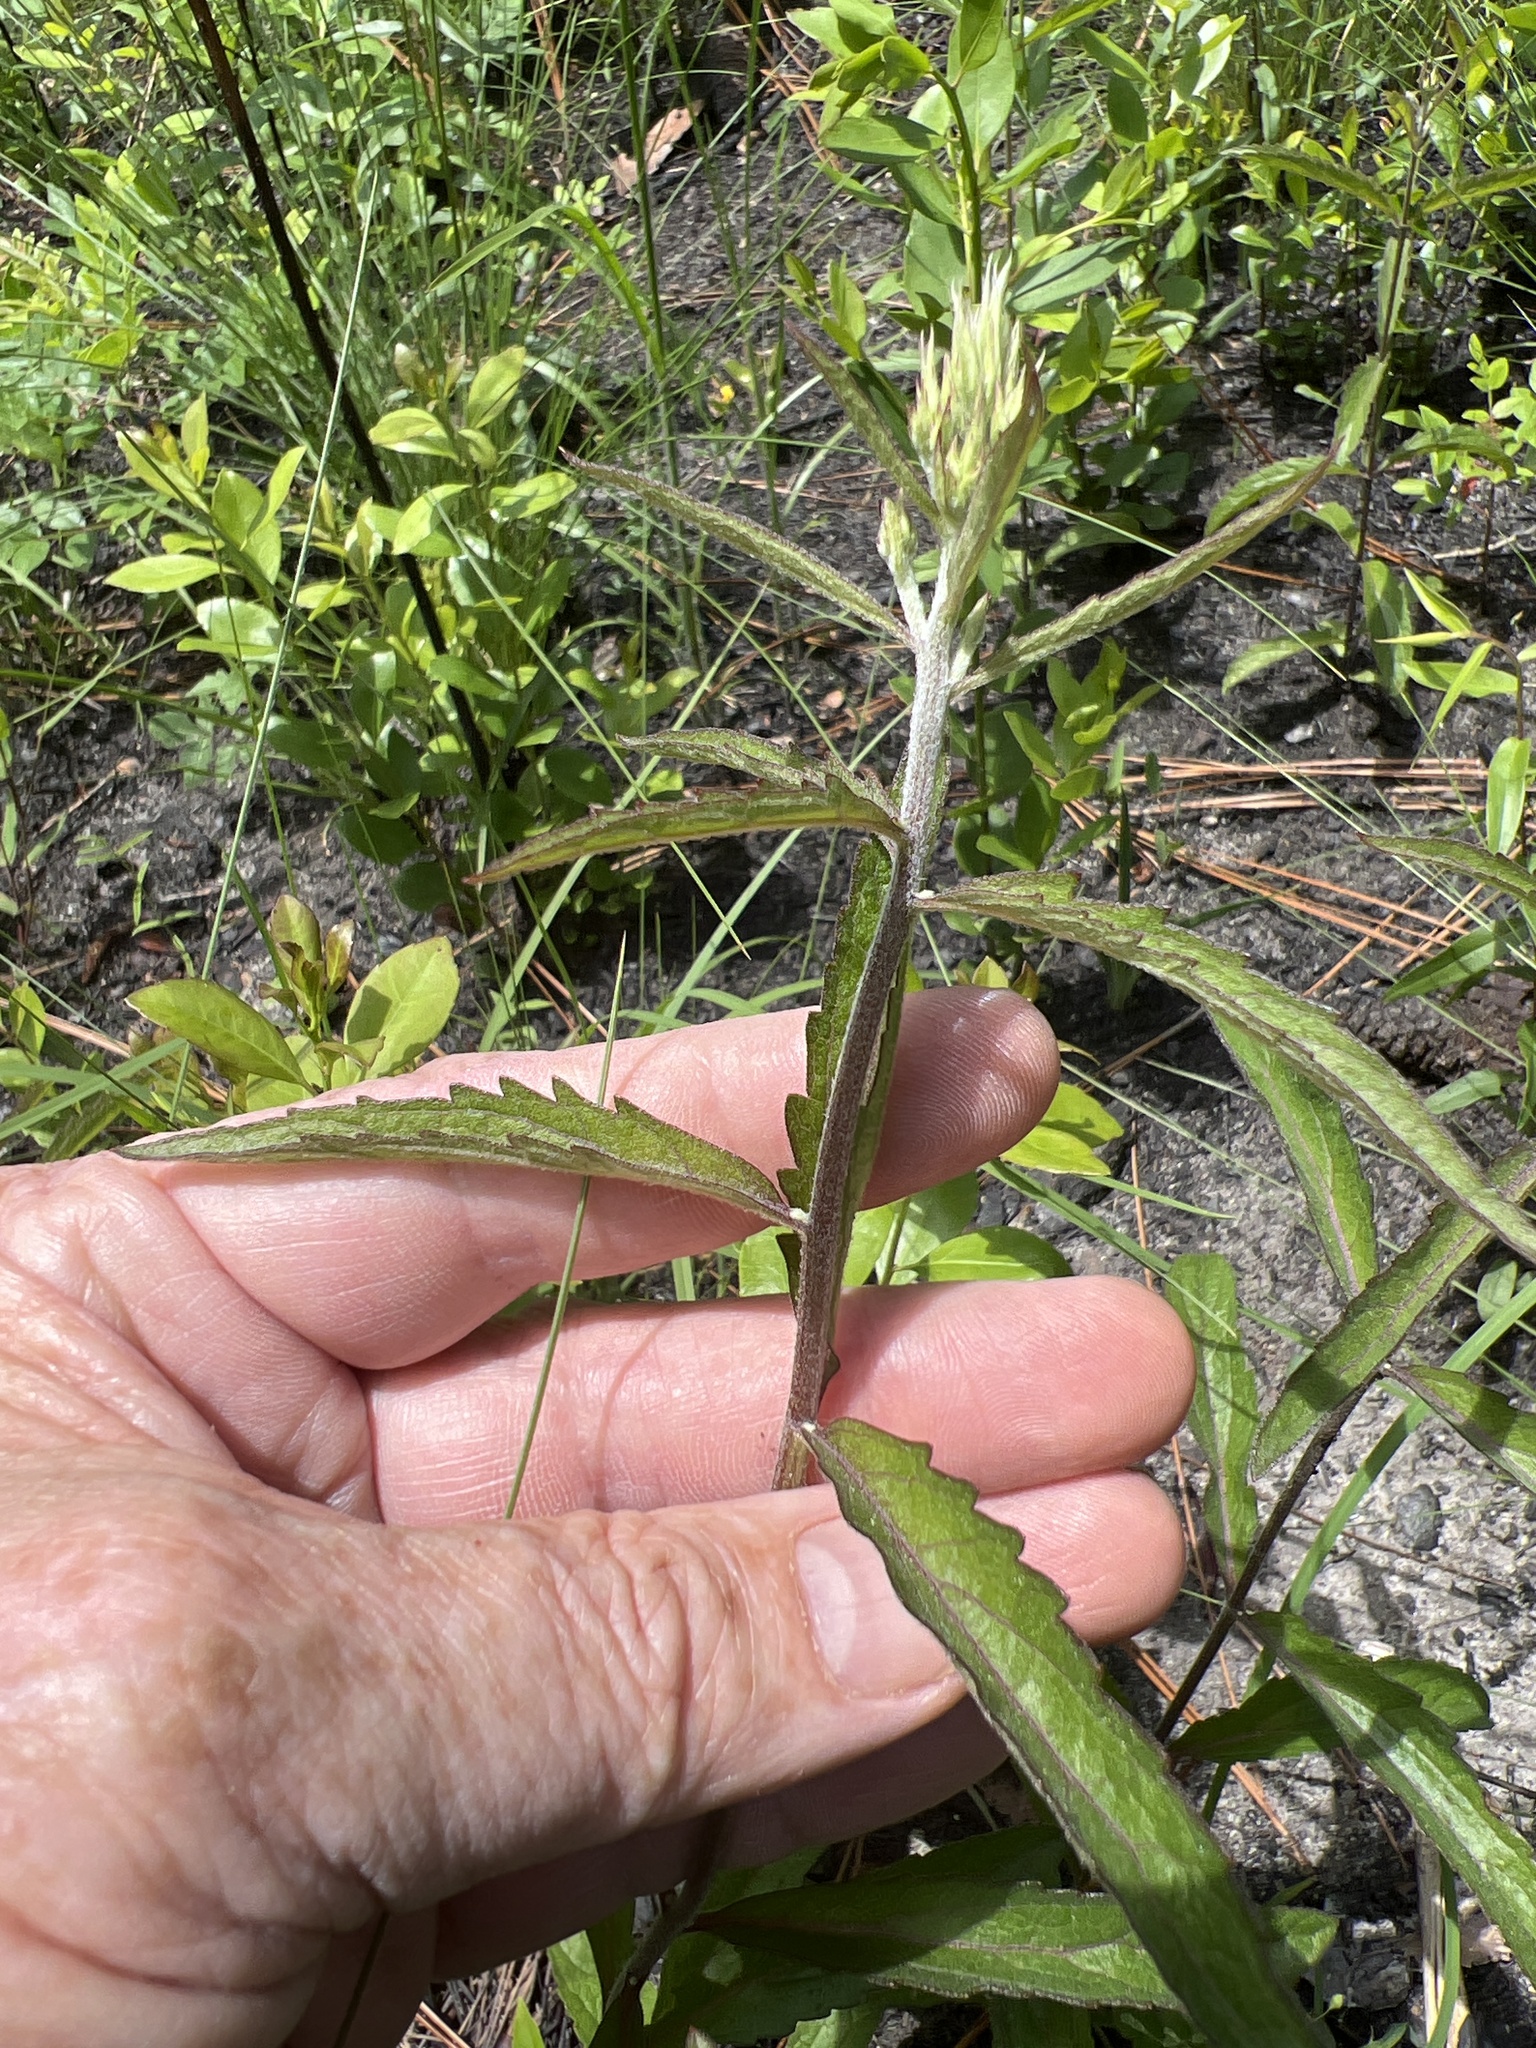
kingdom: Plantae
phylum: Tracheophyta
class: Magnoliopsida
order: Asterales
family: Asteraceae
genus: Eupatorium
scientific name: Eupatorium album
